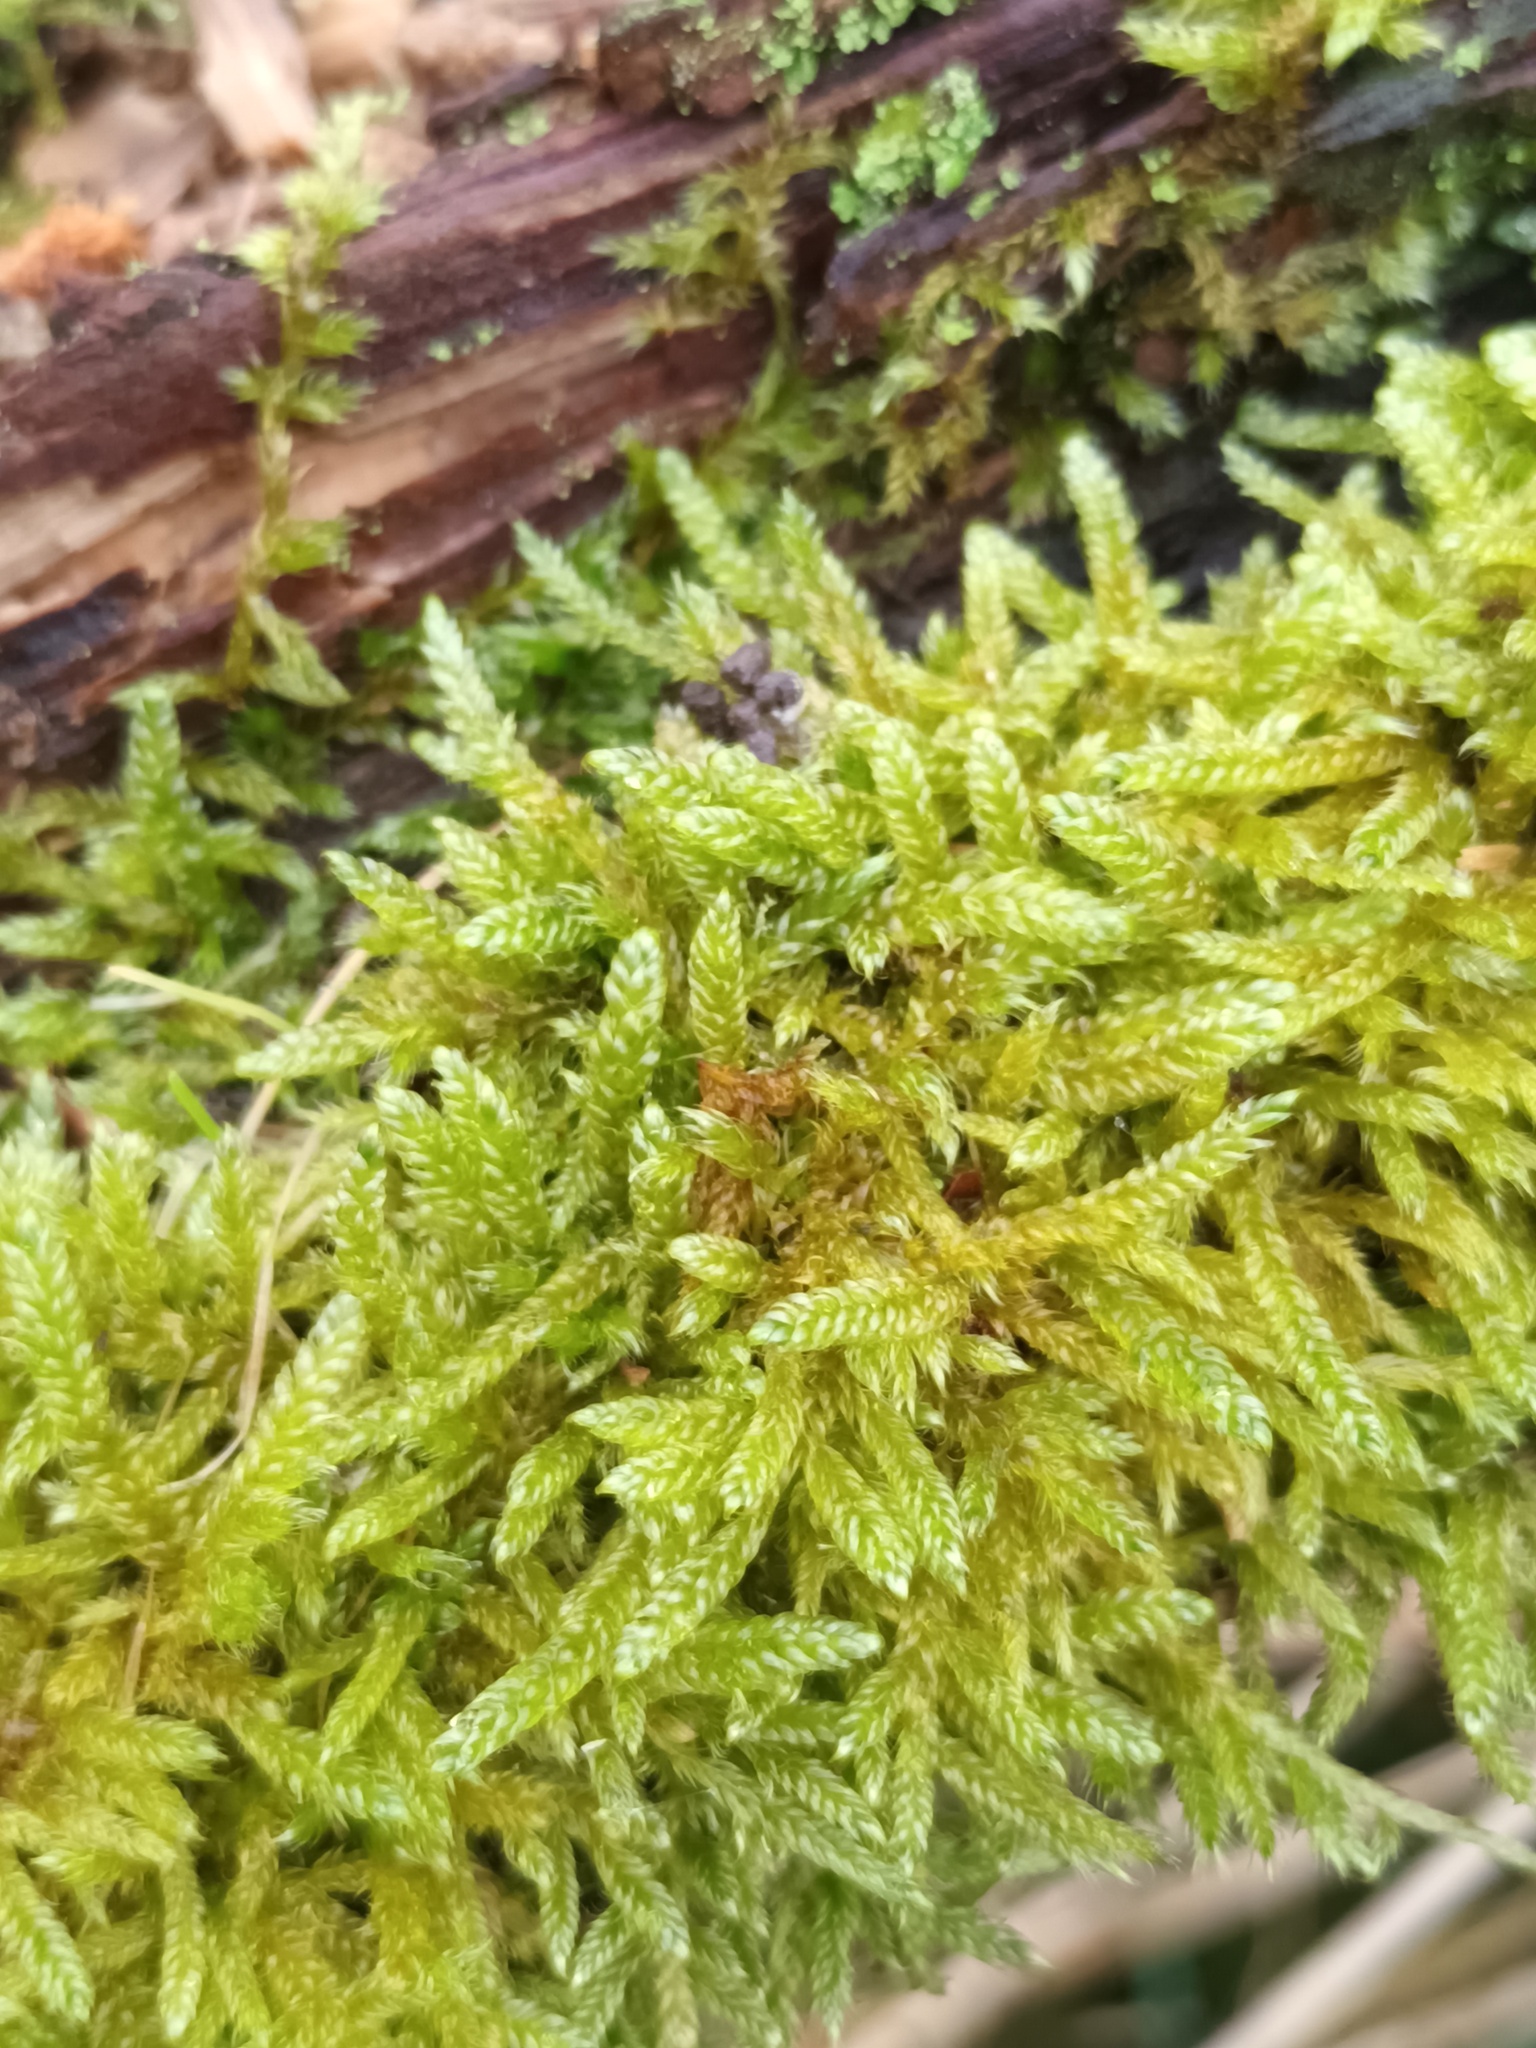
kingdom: Plantae
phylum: Bryophyta
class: Bryopsida
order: Hypnales
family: Hypnaceae
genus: Hypnum
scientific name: Hypnum cupressiforme
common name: Cypress-leaved plait-moss
